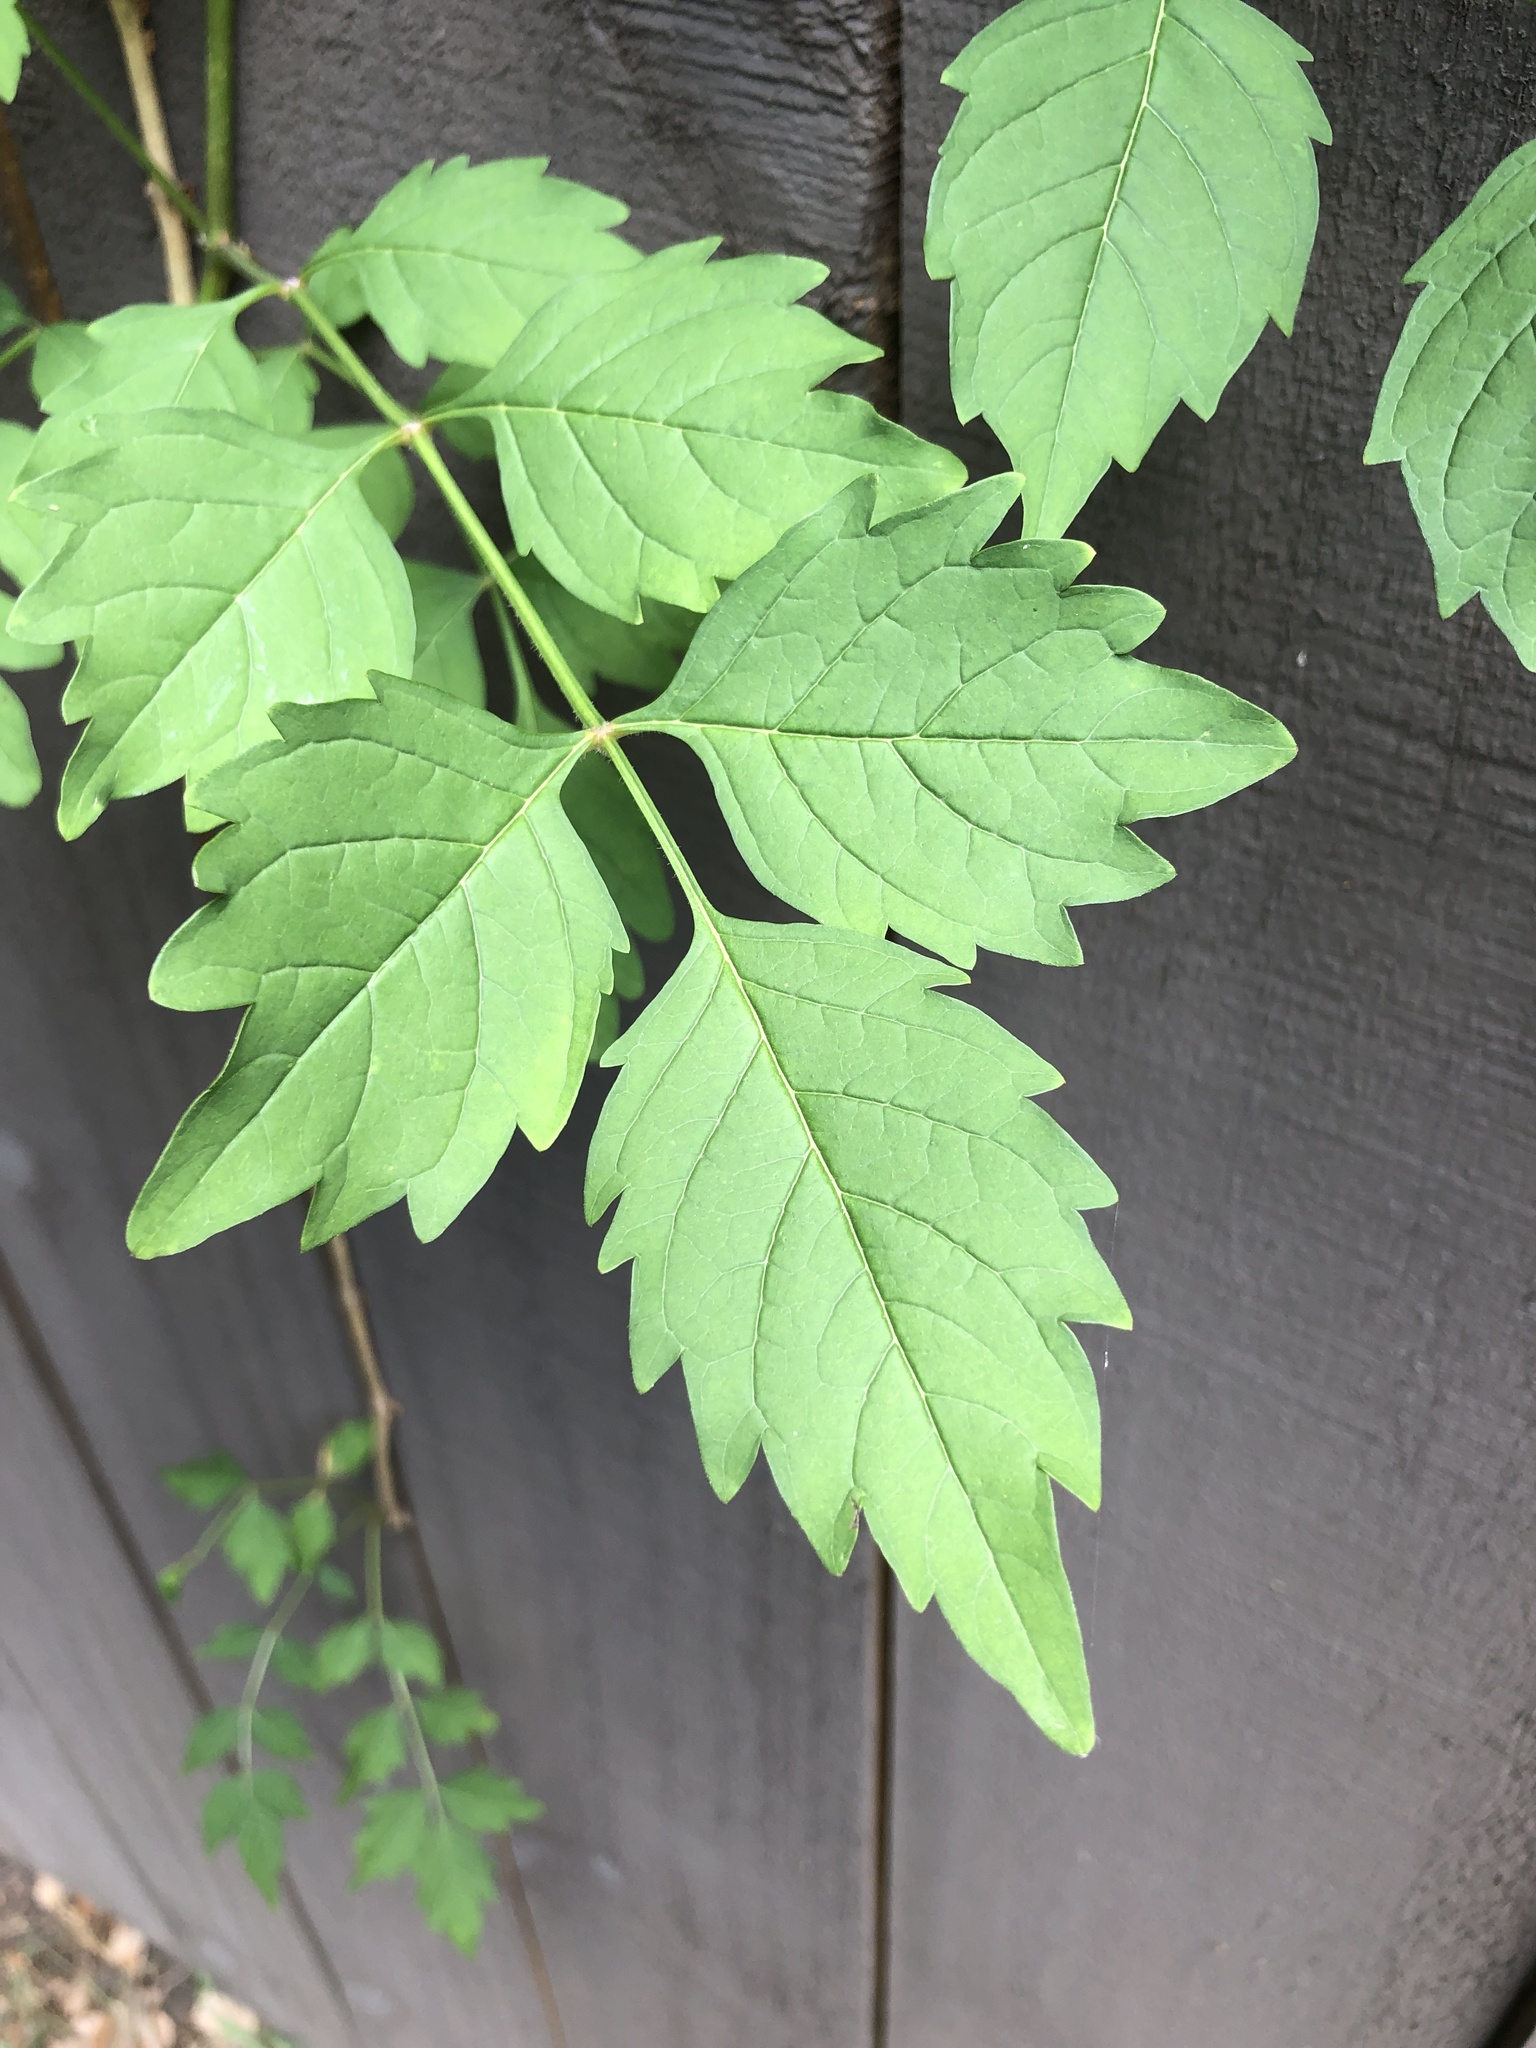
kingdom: Plantae
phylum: Tracheophyta
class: Magnoliopsida
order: Lamiales
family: Bignoniaceae
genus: Campsis
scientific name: Campsis radicans
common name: Trumpet-creeper
